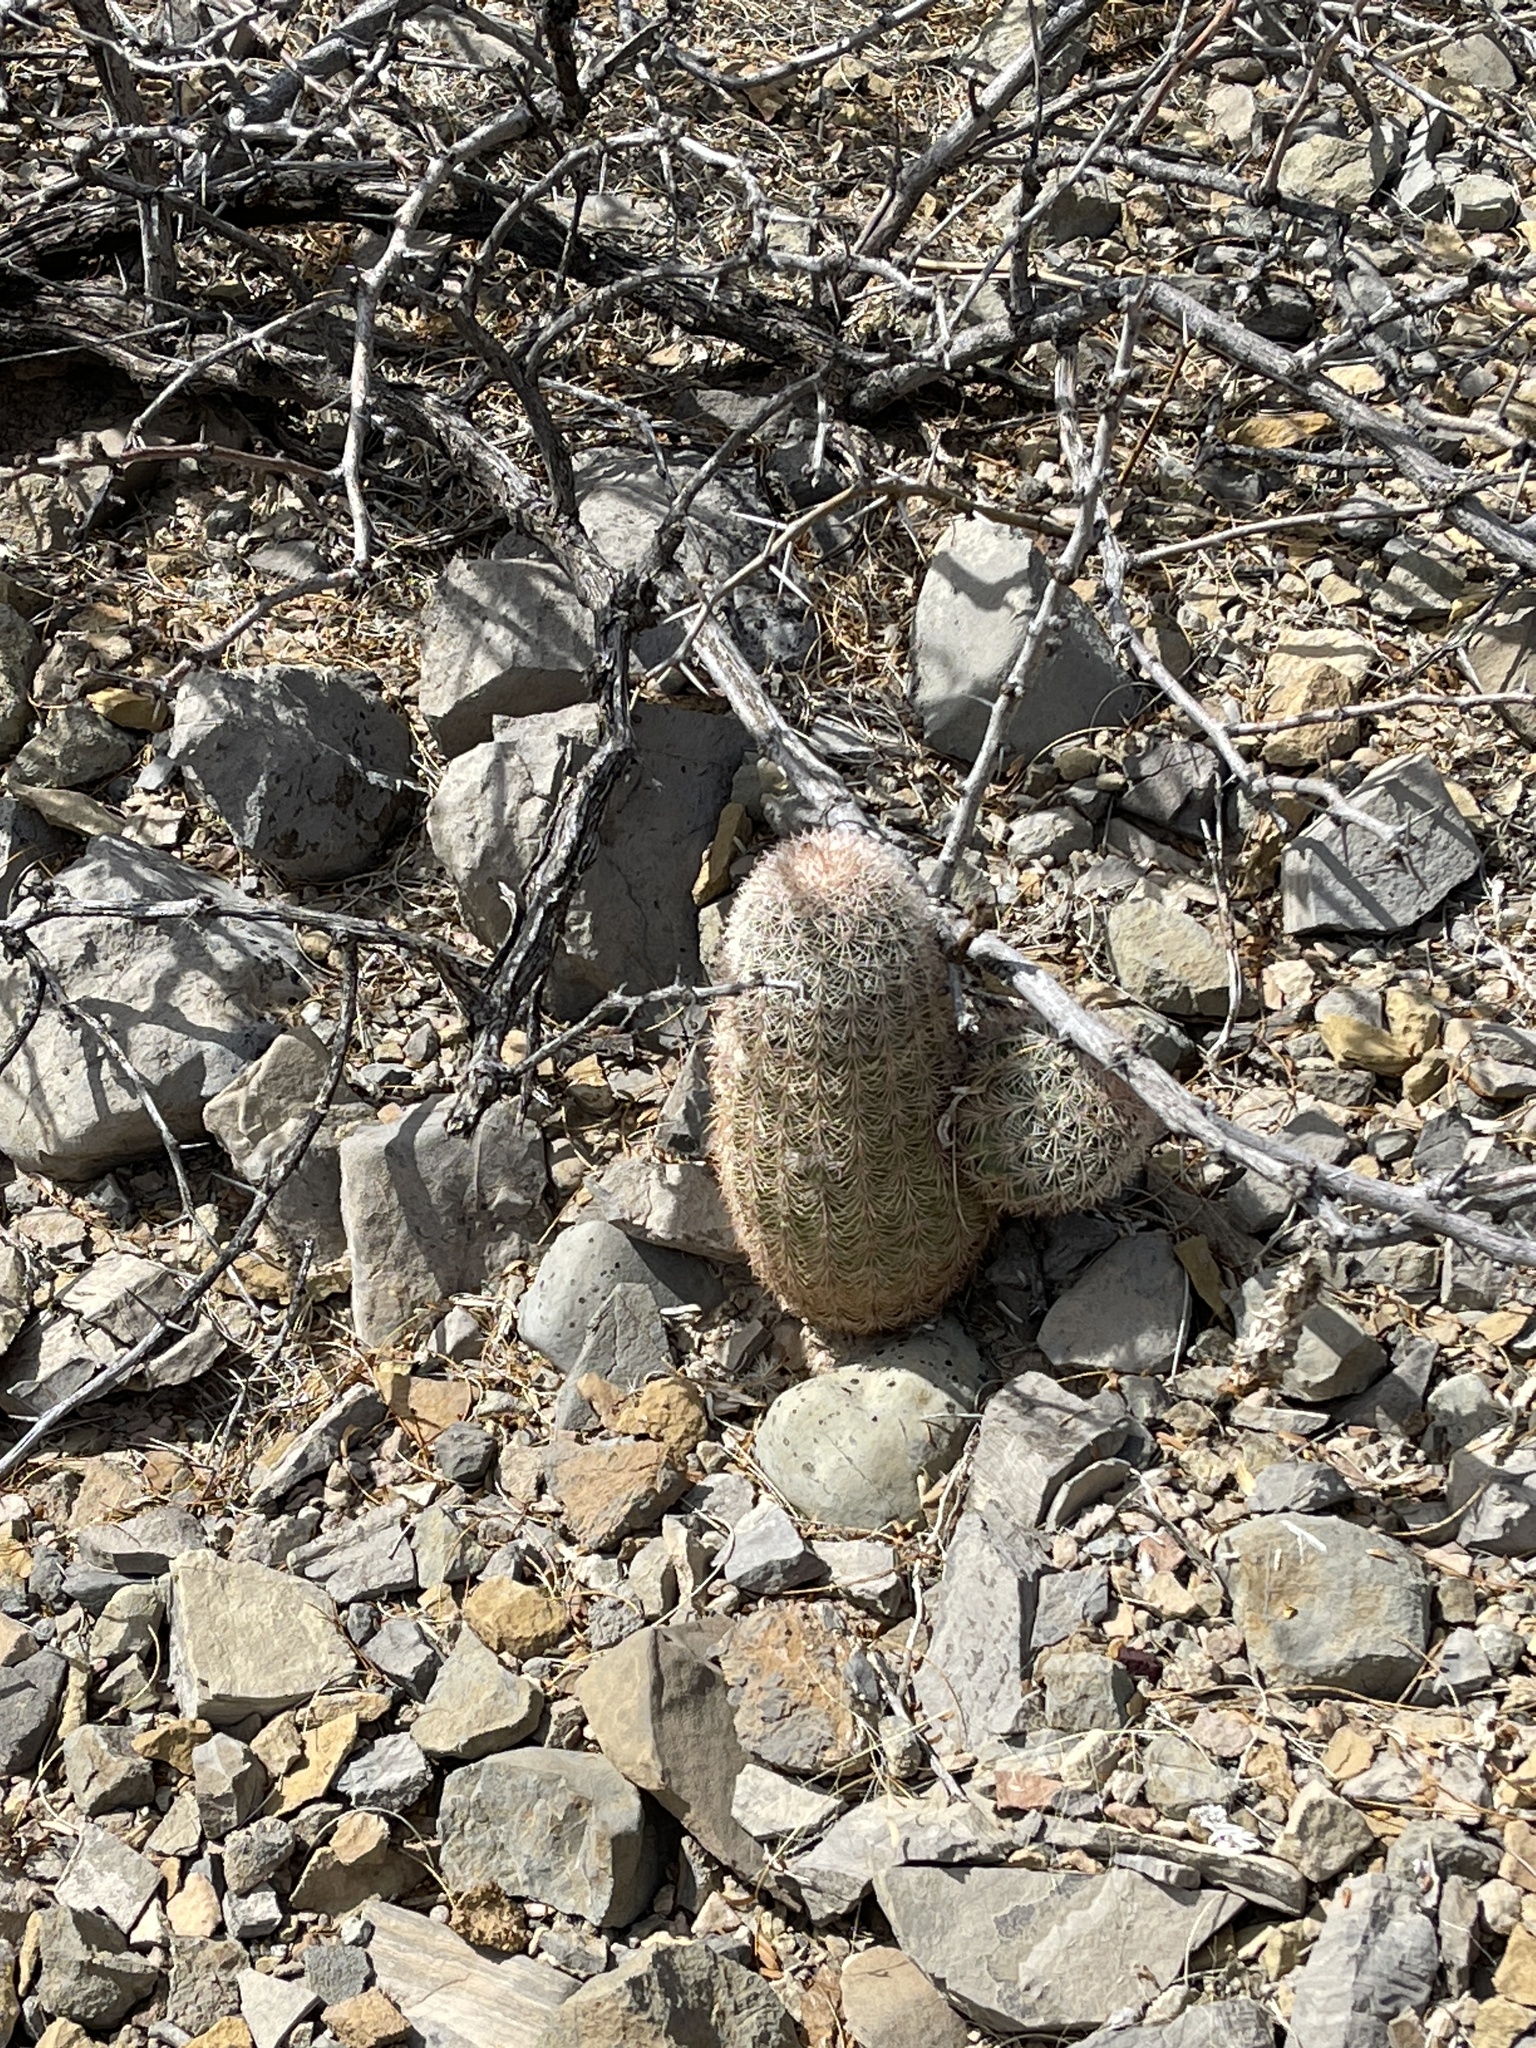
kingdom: Plantae
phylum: Tracheophyta
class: Magnoliopsida
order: Caryophyllales
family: Cactaceae
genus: Echinocereus
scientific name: Echinocereus dasyacanthus
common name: Spiny hedgehog cactus
